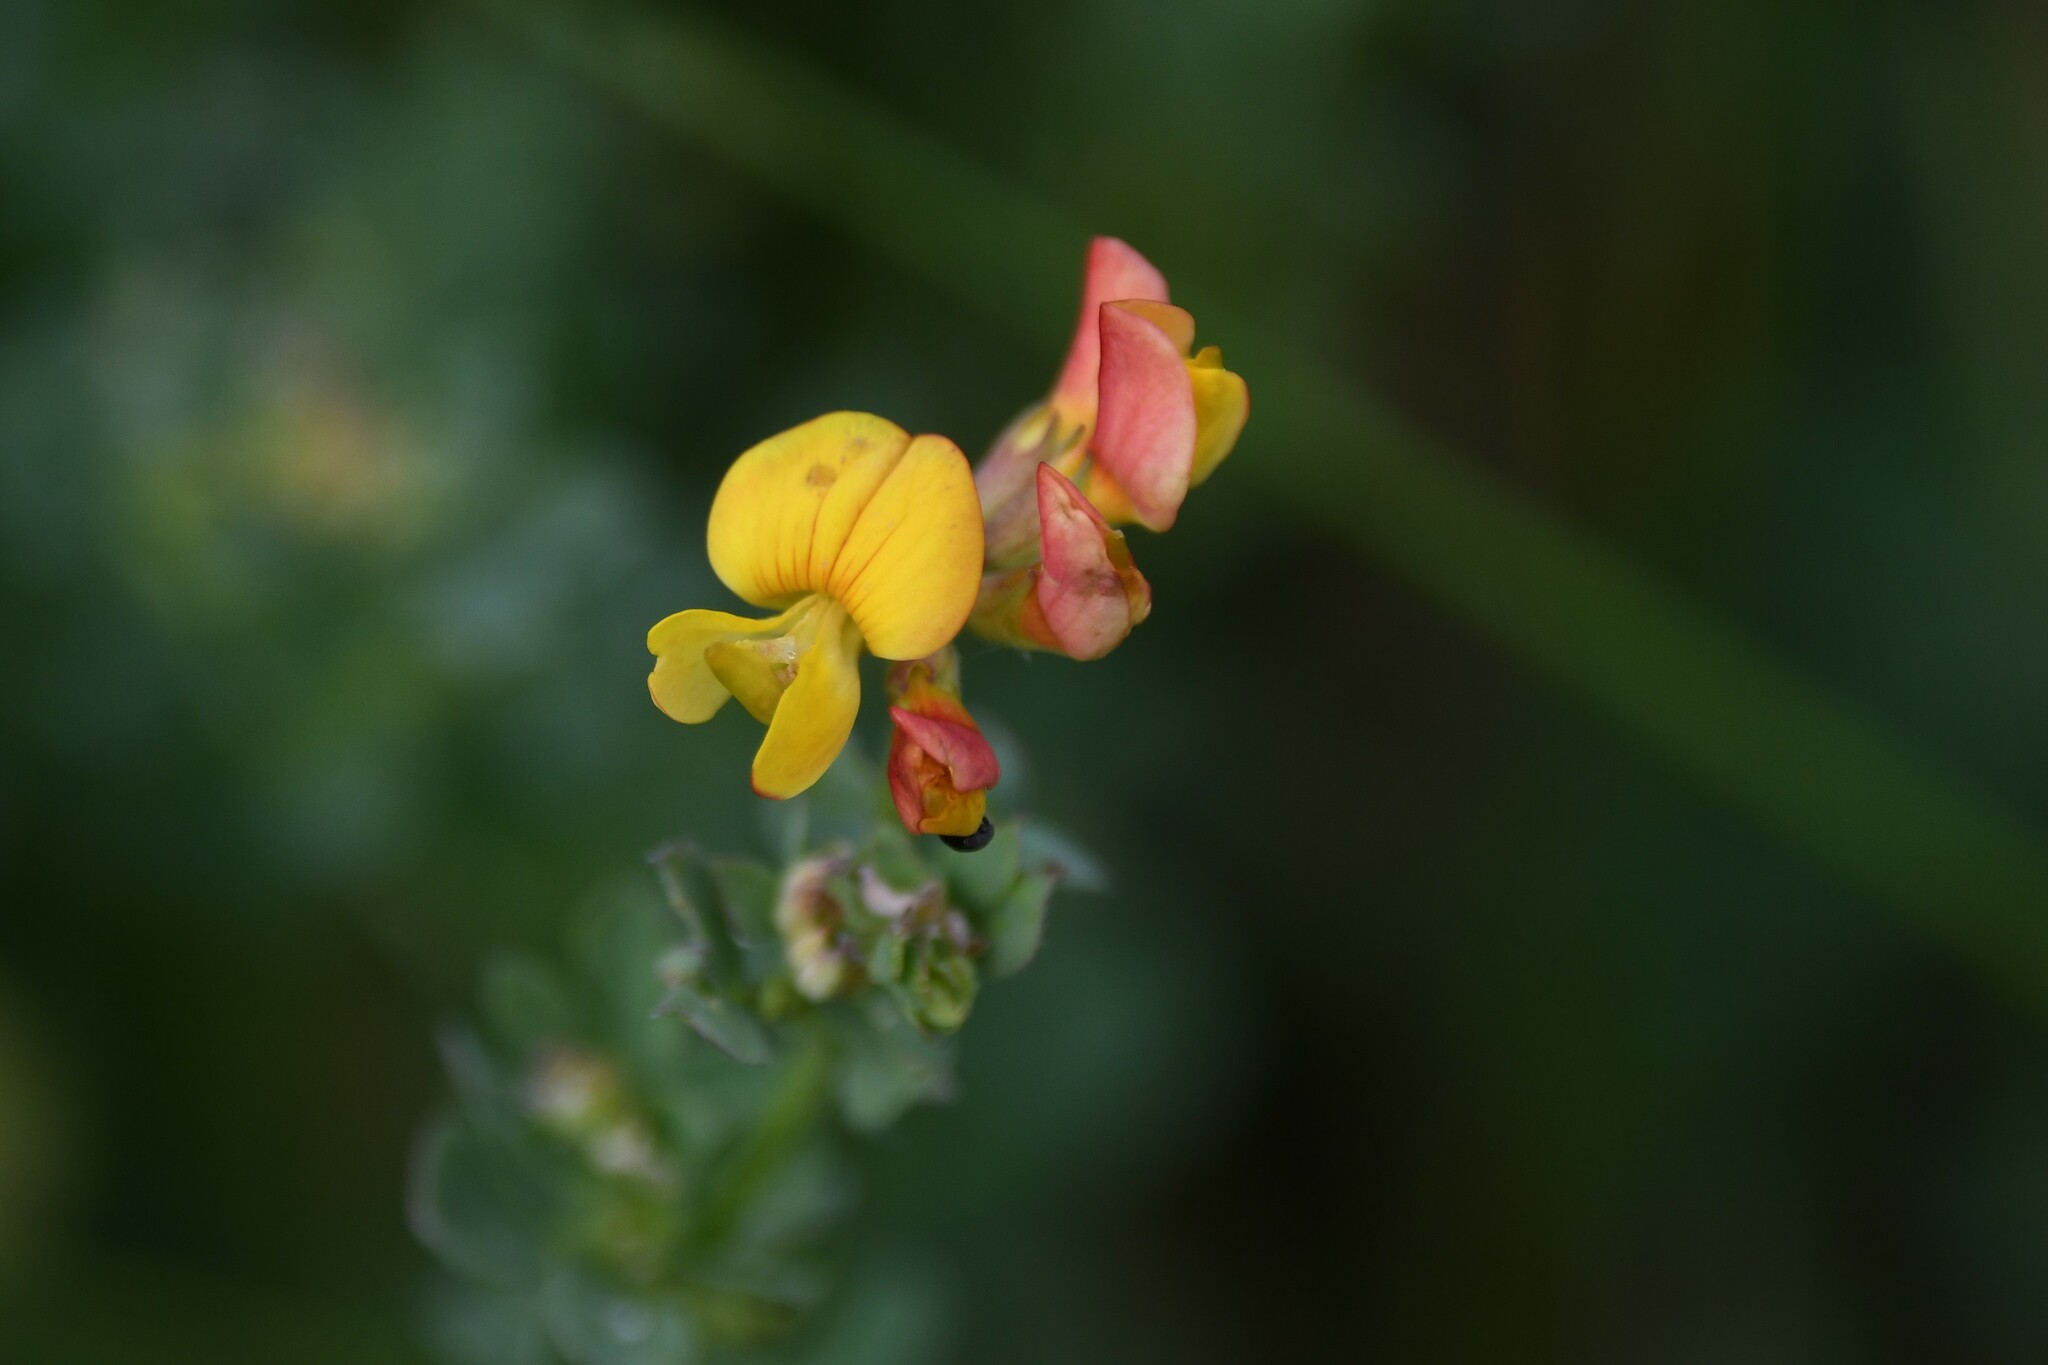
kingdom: Plantae
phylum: Tracheophyta
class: Magnoliopsida
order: Fabales
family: Fabaceae
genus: Lotus
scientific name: Lotus corniculatus
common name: Common bird's-foot-trefoil
